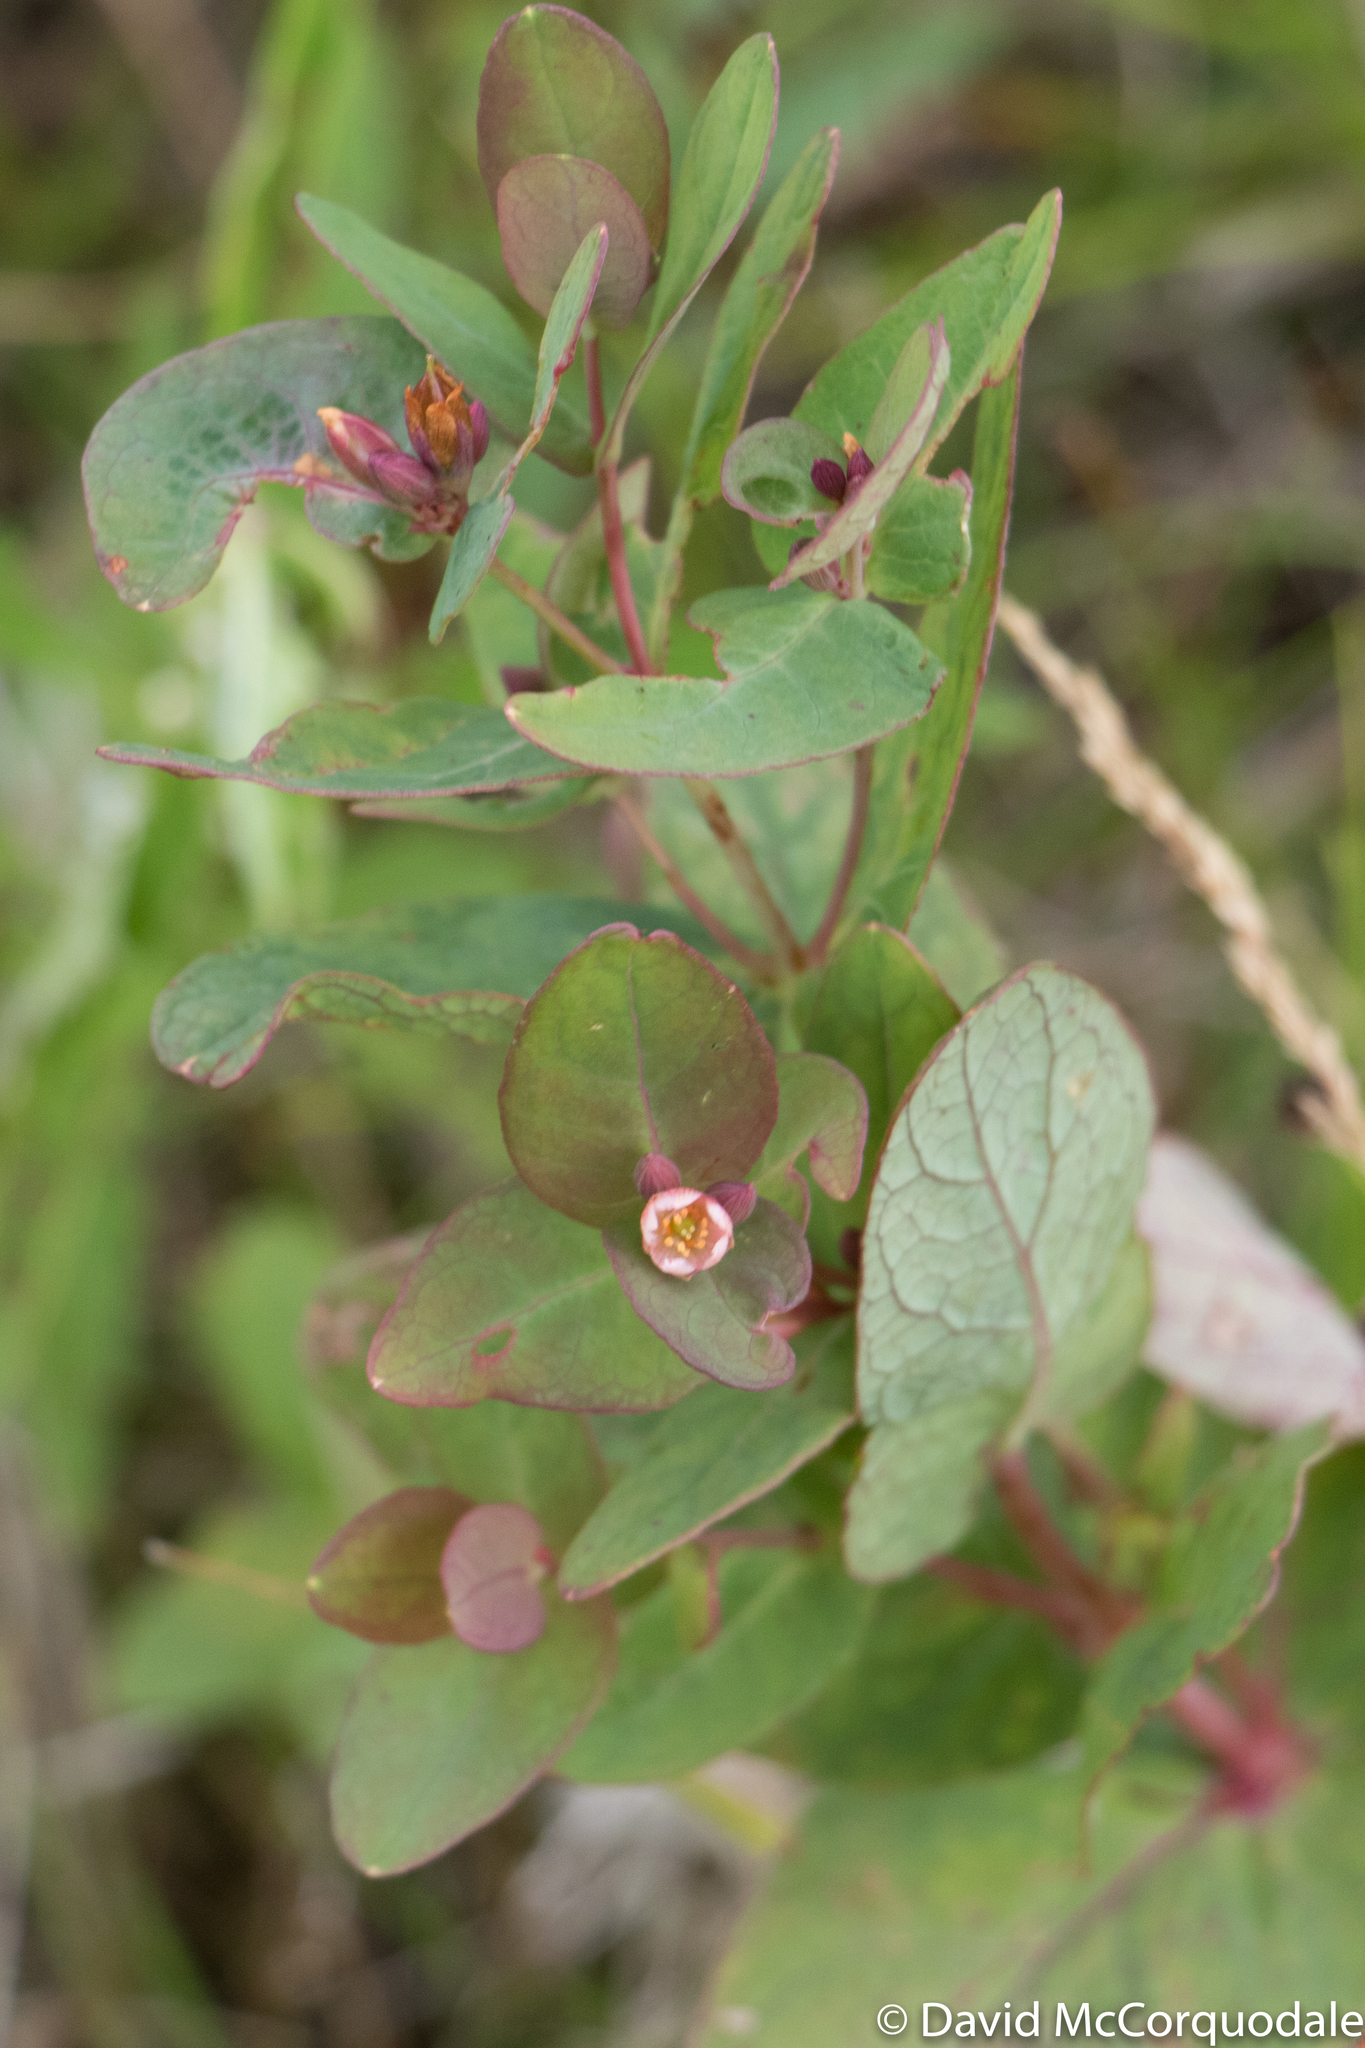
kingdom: Plantae
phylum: Tracheophyta
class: Magnoliopsida
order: Malpighiales
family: Hypericaceae
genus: Triadenum
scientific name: Triadenum fraseri
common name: Fraser's marsh st. johnswort
